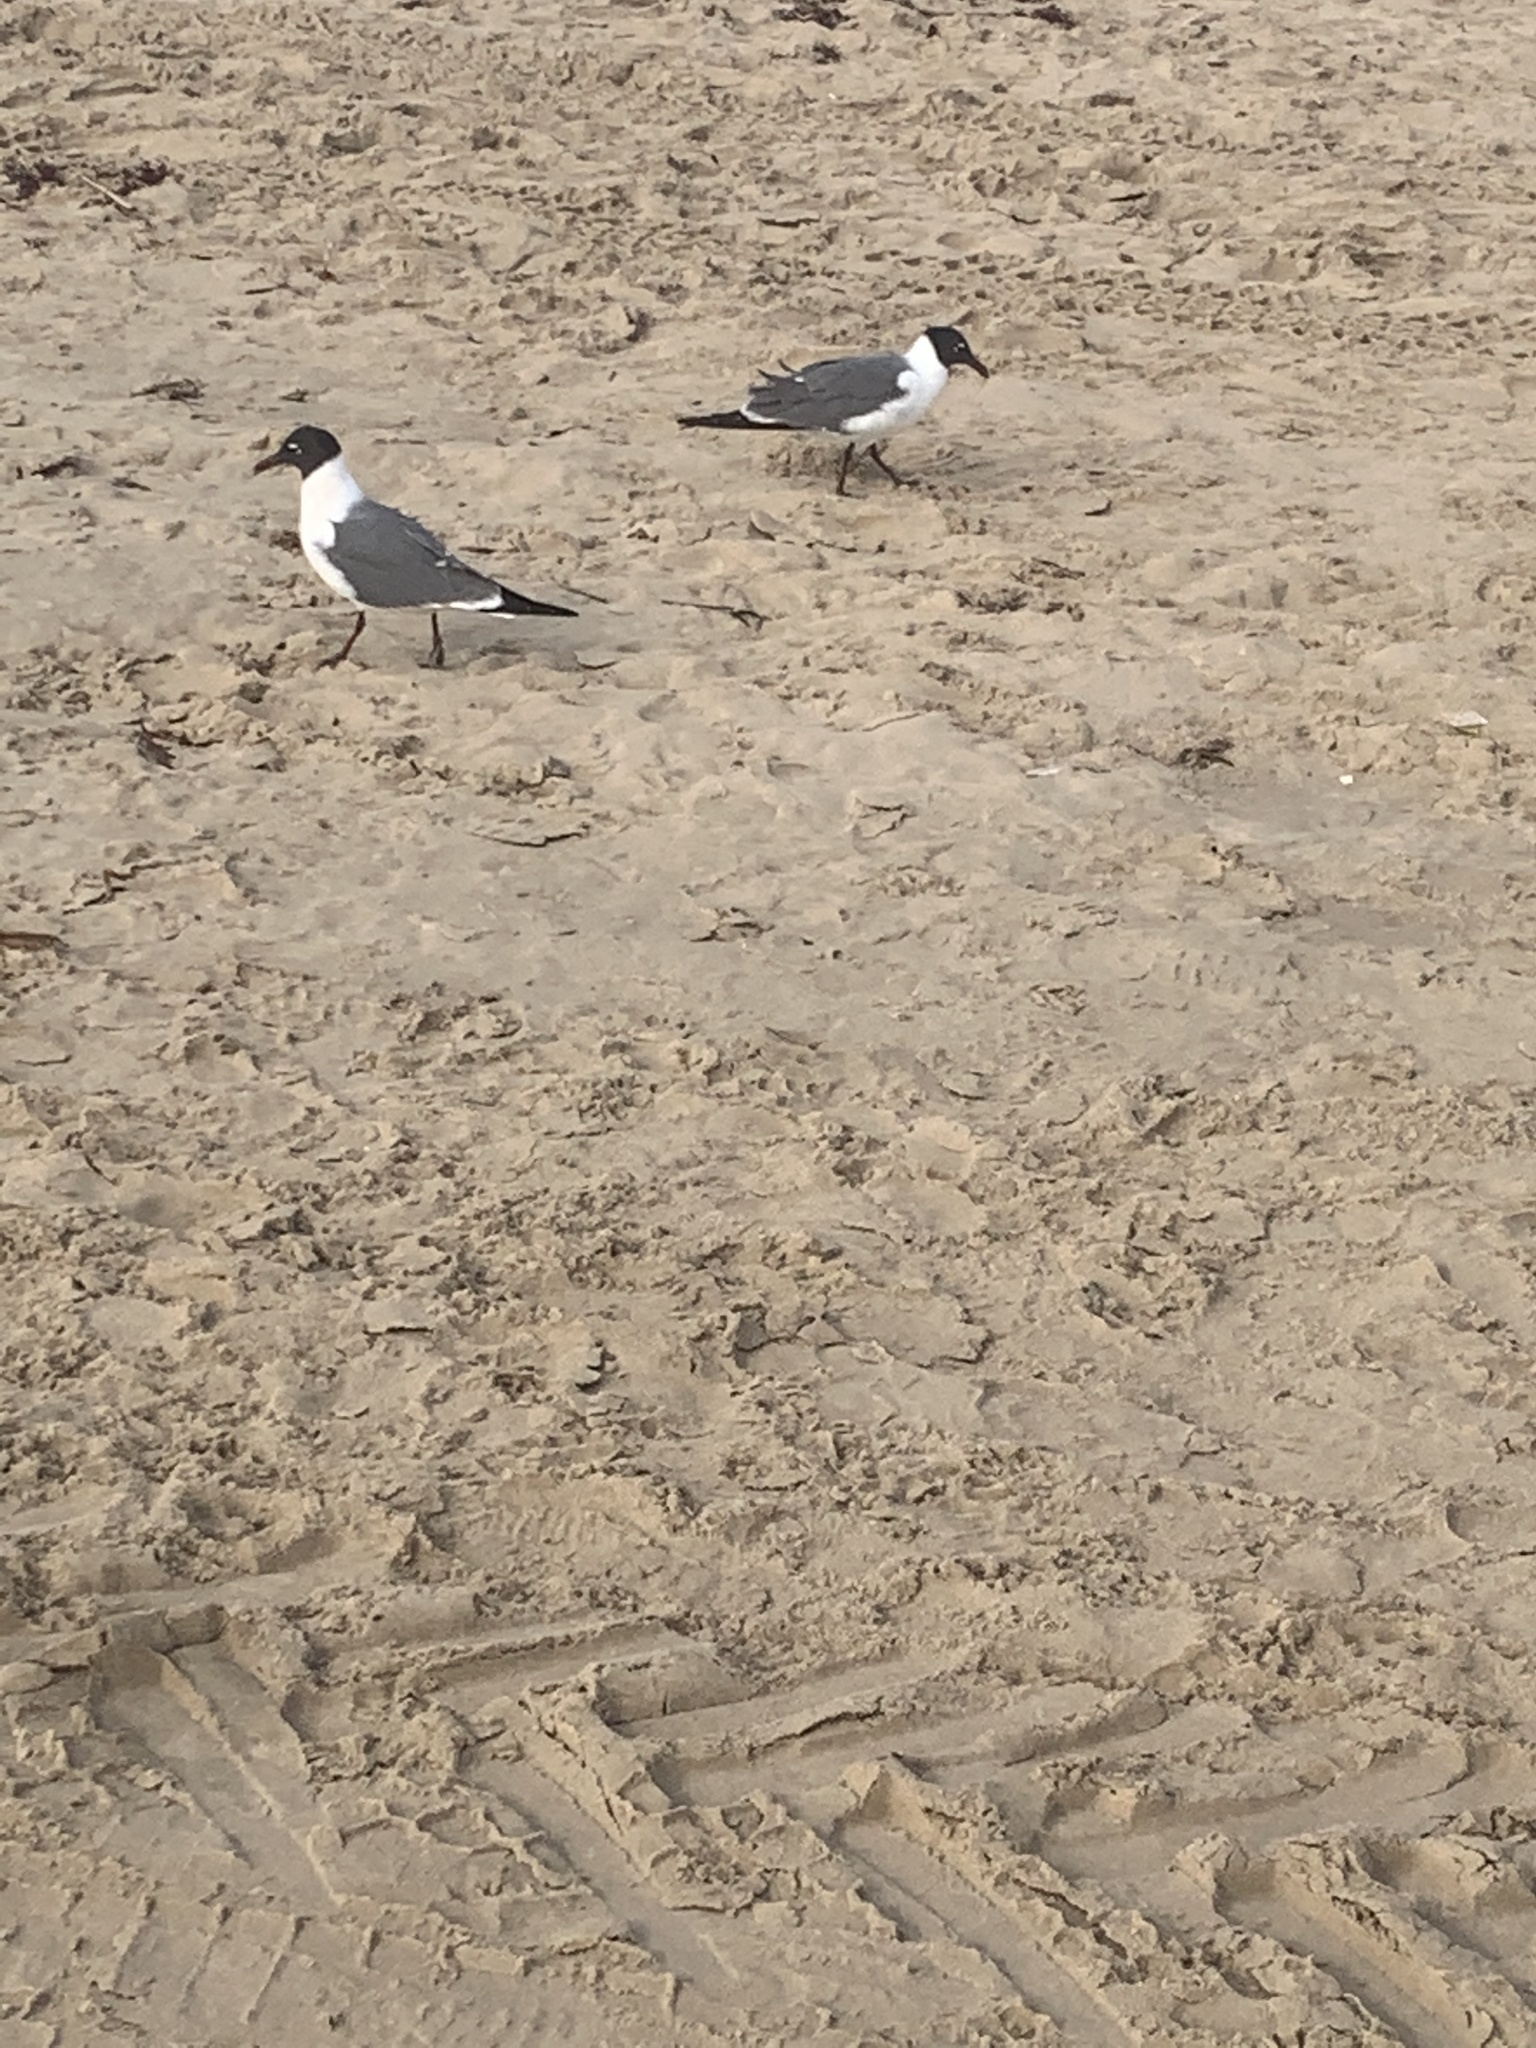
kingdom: Animalia
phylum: Chordata
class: Aves
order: Charadriiformes
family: Laridae
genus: Leucophaeus
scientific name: Leucophaeus atricilla
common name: Laughing gull
